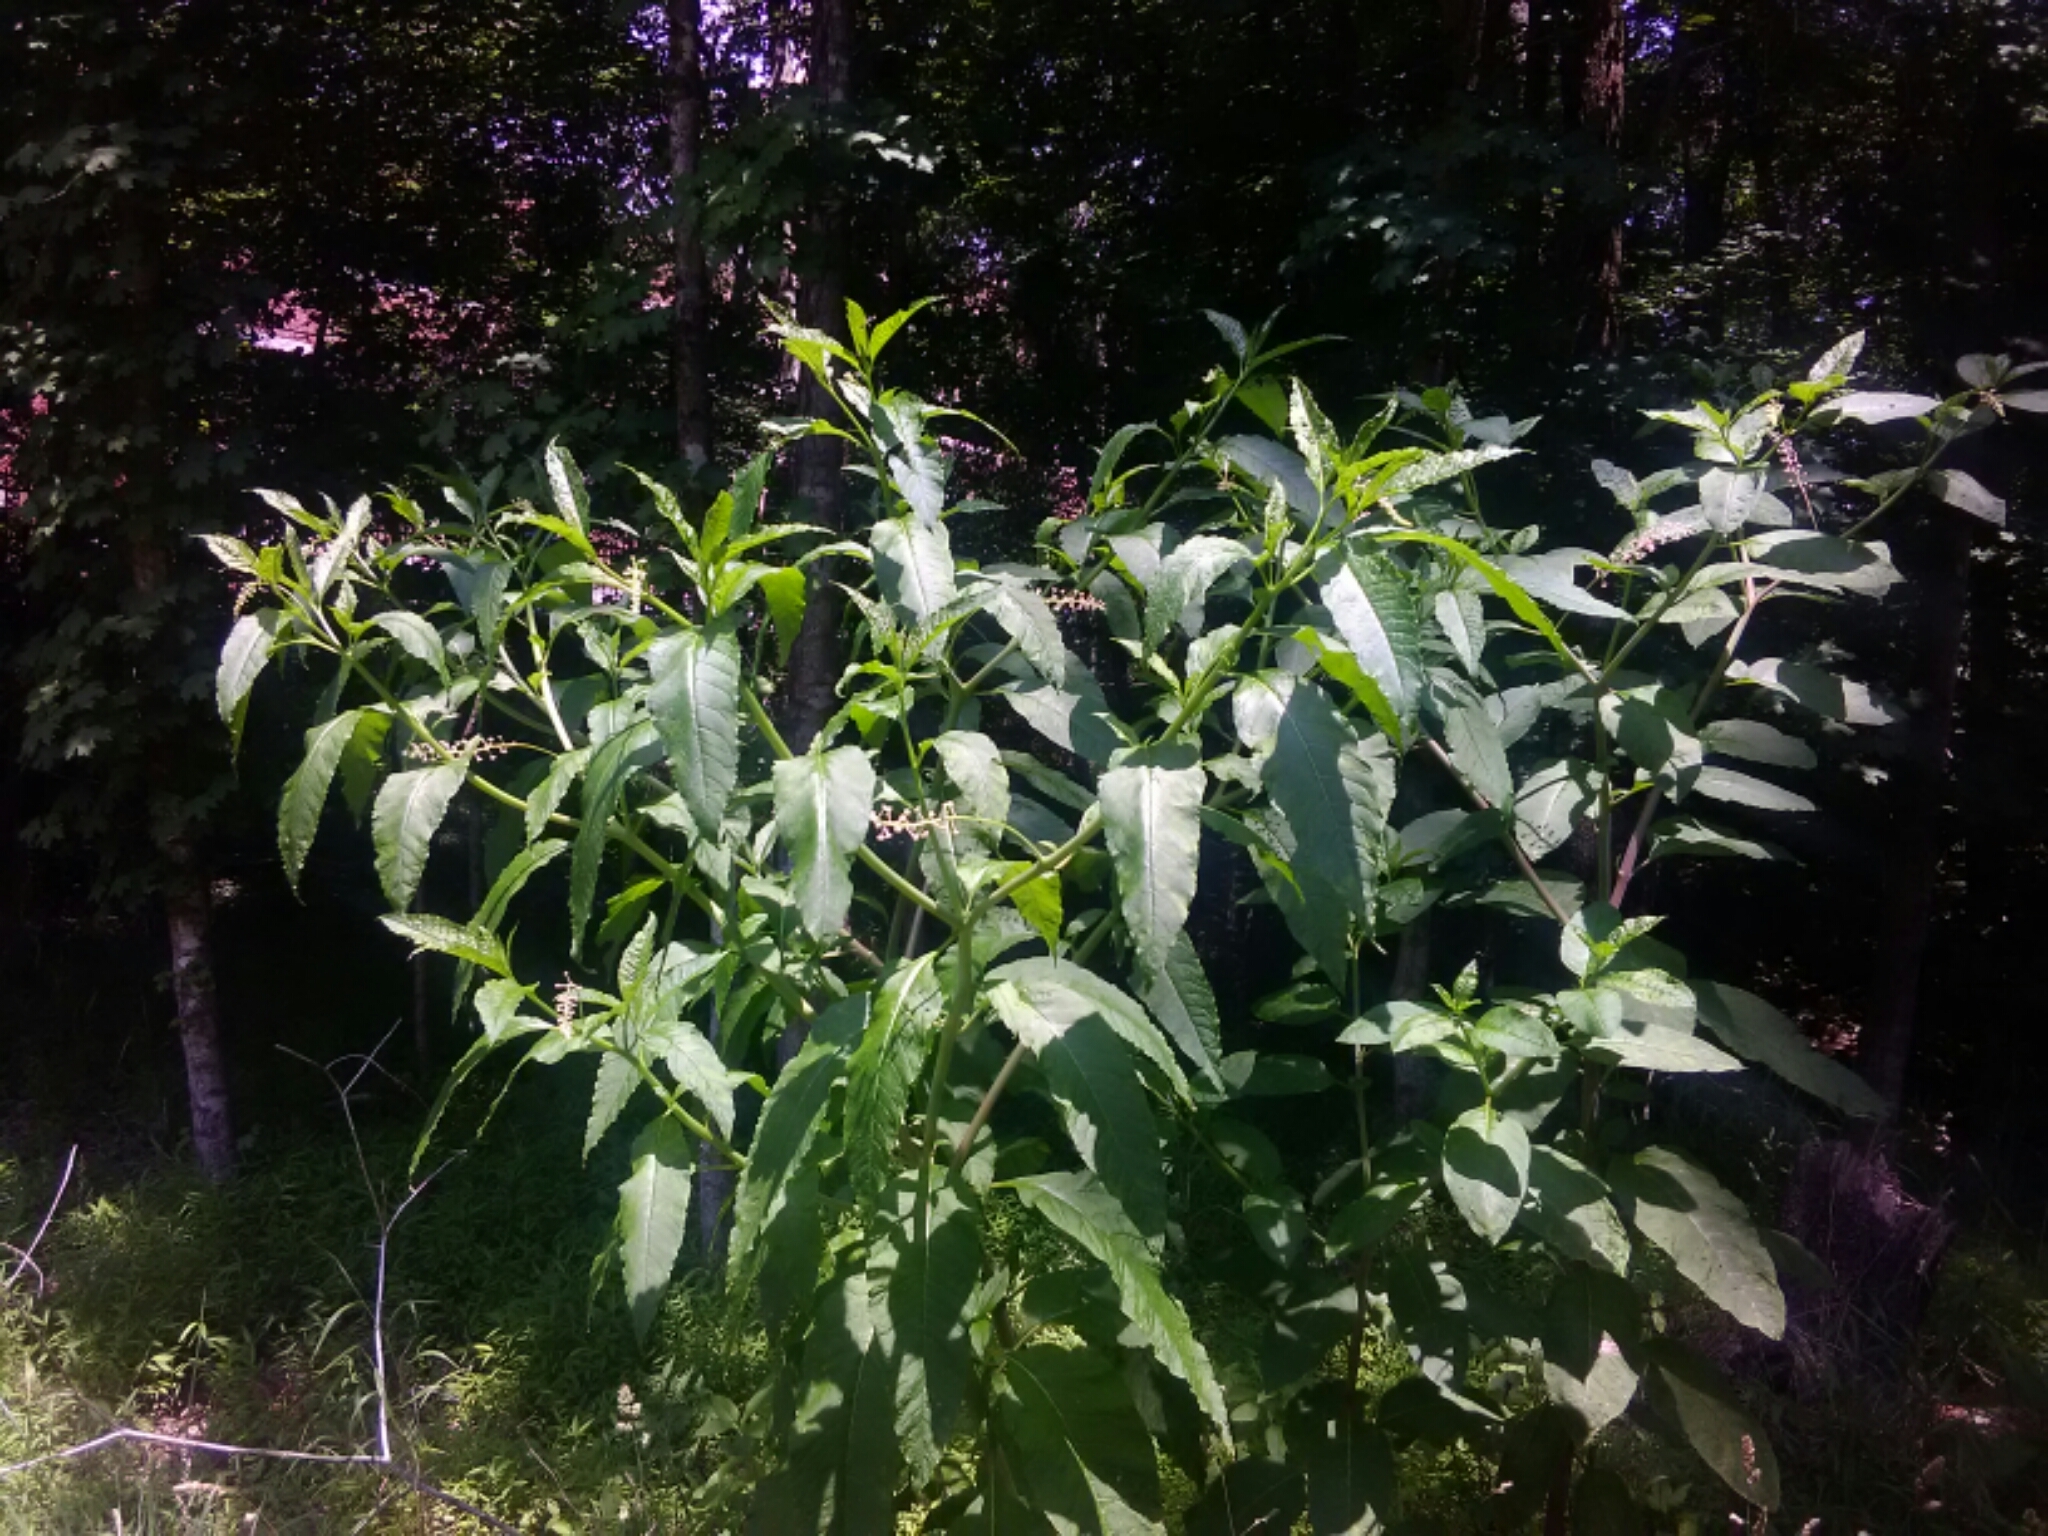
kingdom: Plantae
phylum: Tracheophyta
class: Magnoliopsida
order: Caryophyllales
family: Phytolaccaceae
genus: Phytolacca
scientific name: Phytolacca americana
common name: American pokeweed
